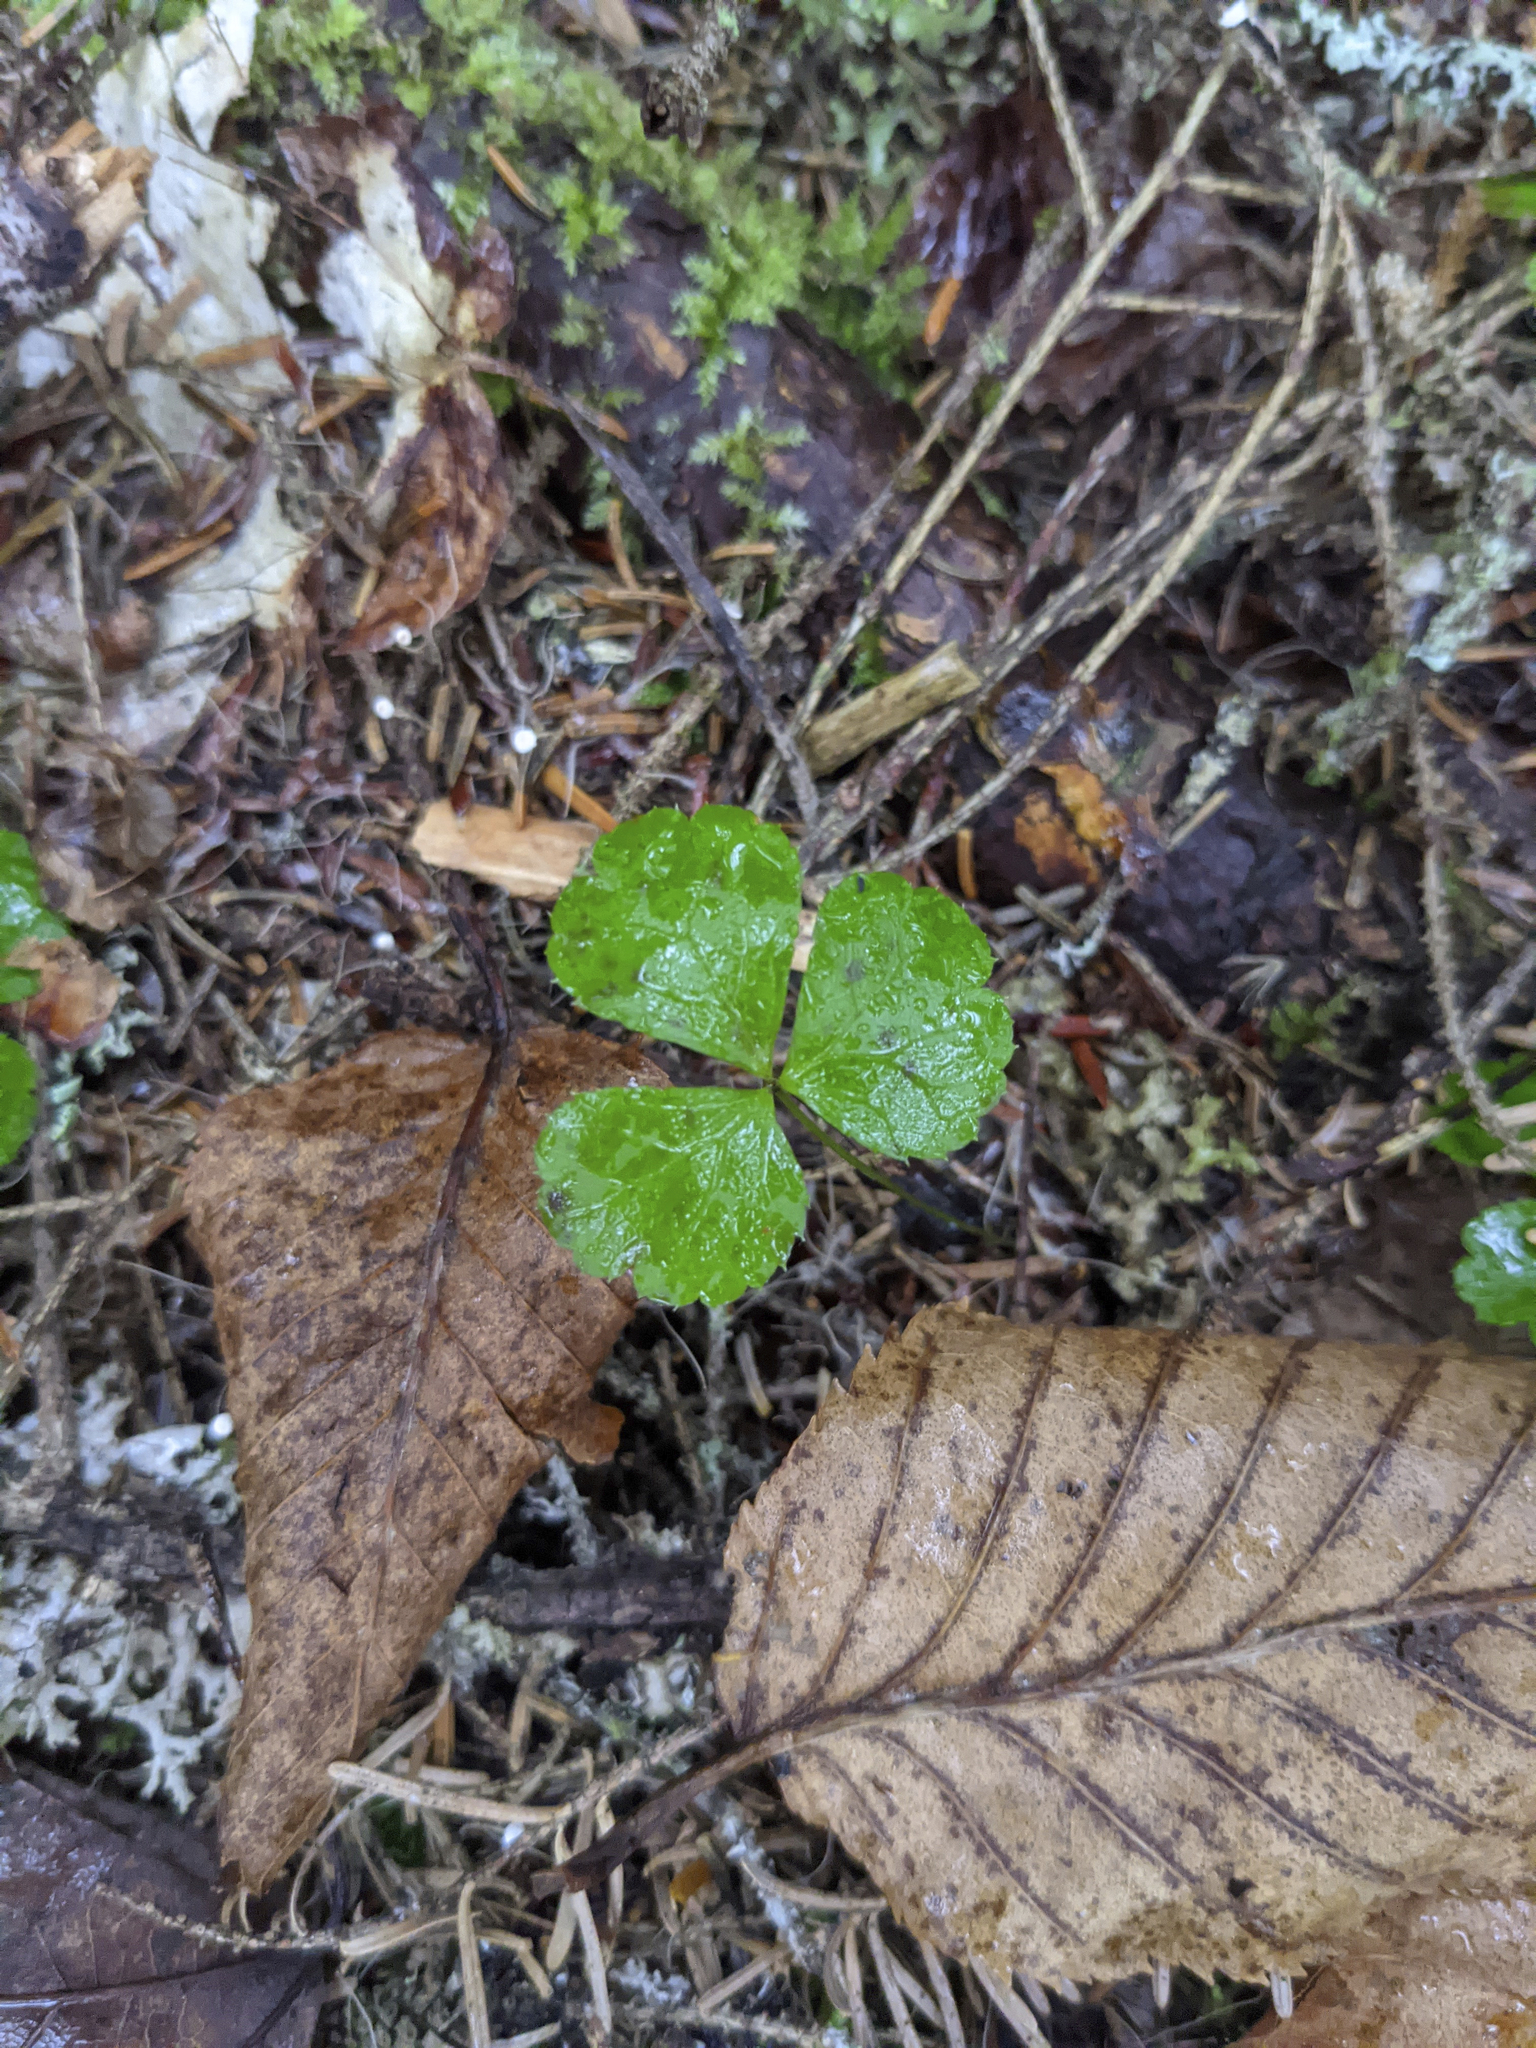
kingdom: Plantae
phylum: Tracheophyta
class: Magnoliopsida
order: Ranunculales
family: Ranunculaceae
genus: Coptis
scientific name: Coptis trifolia
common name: Canker-root
